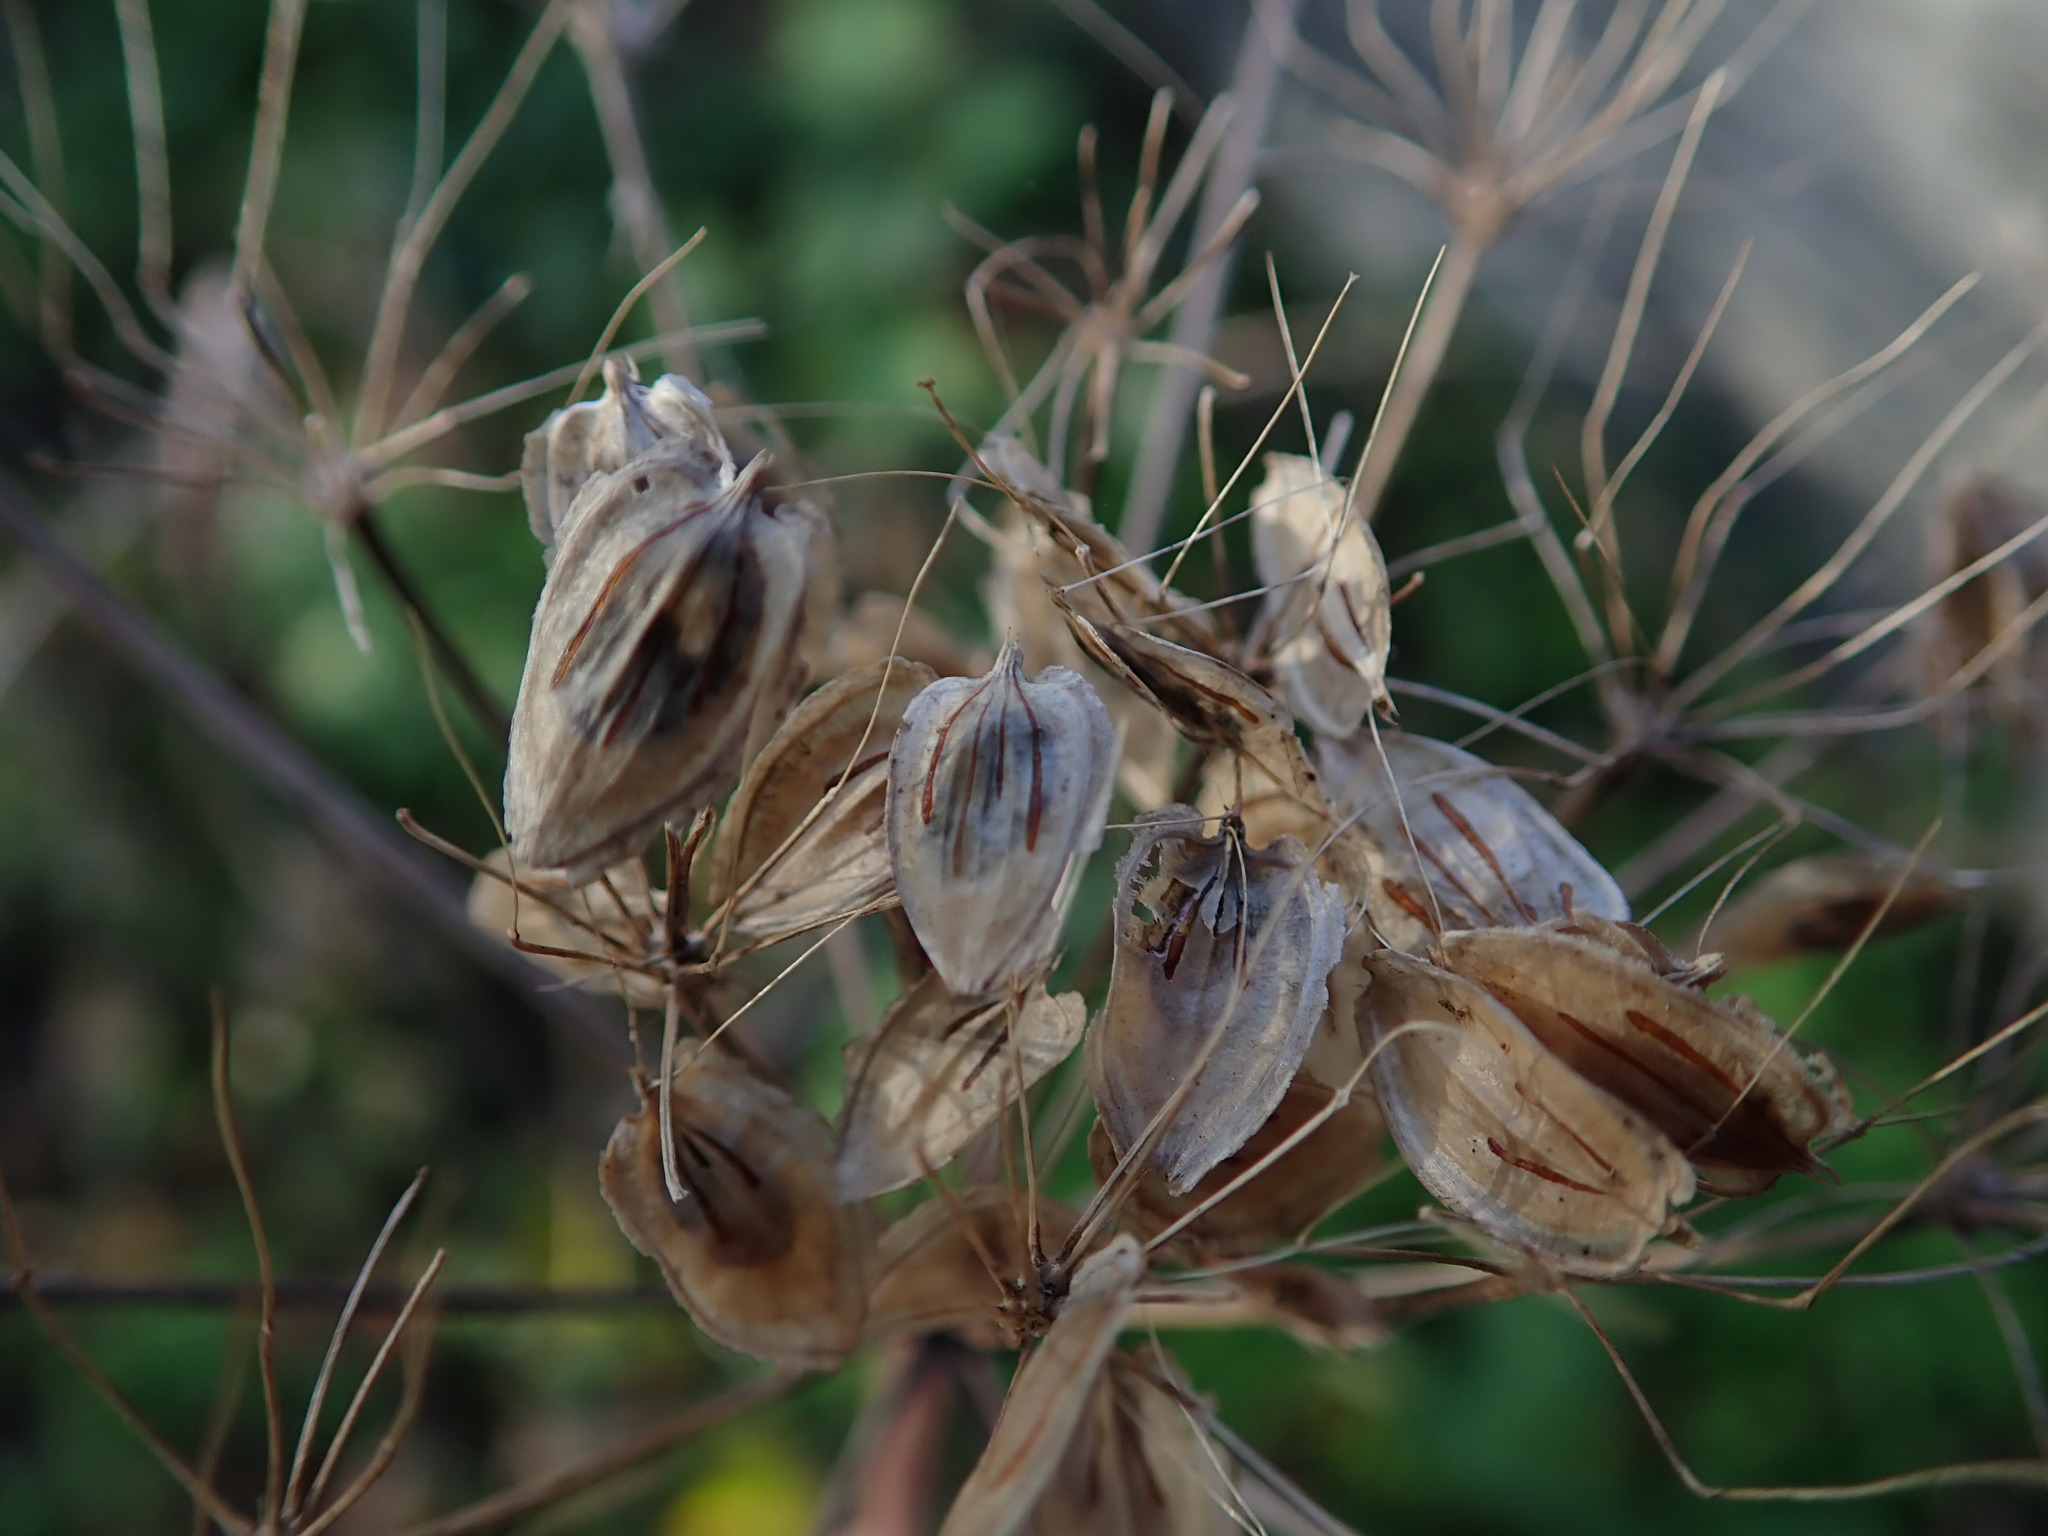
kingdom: Plantae
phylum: Tracheophyta
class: Magnoliopsida
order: Apiales
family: Apiaceae
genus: Heracleum
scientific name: Heracleum sphondylium
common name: Hogweed
